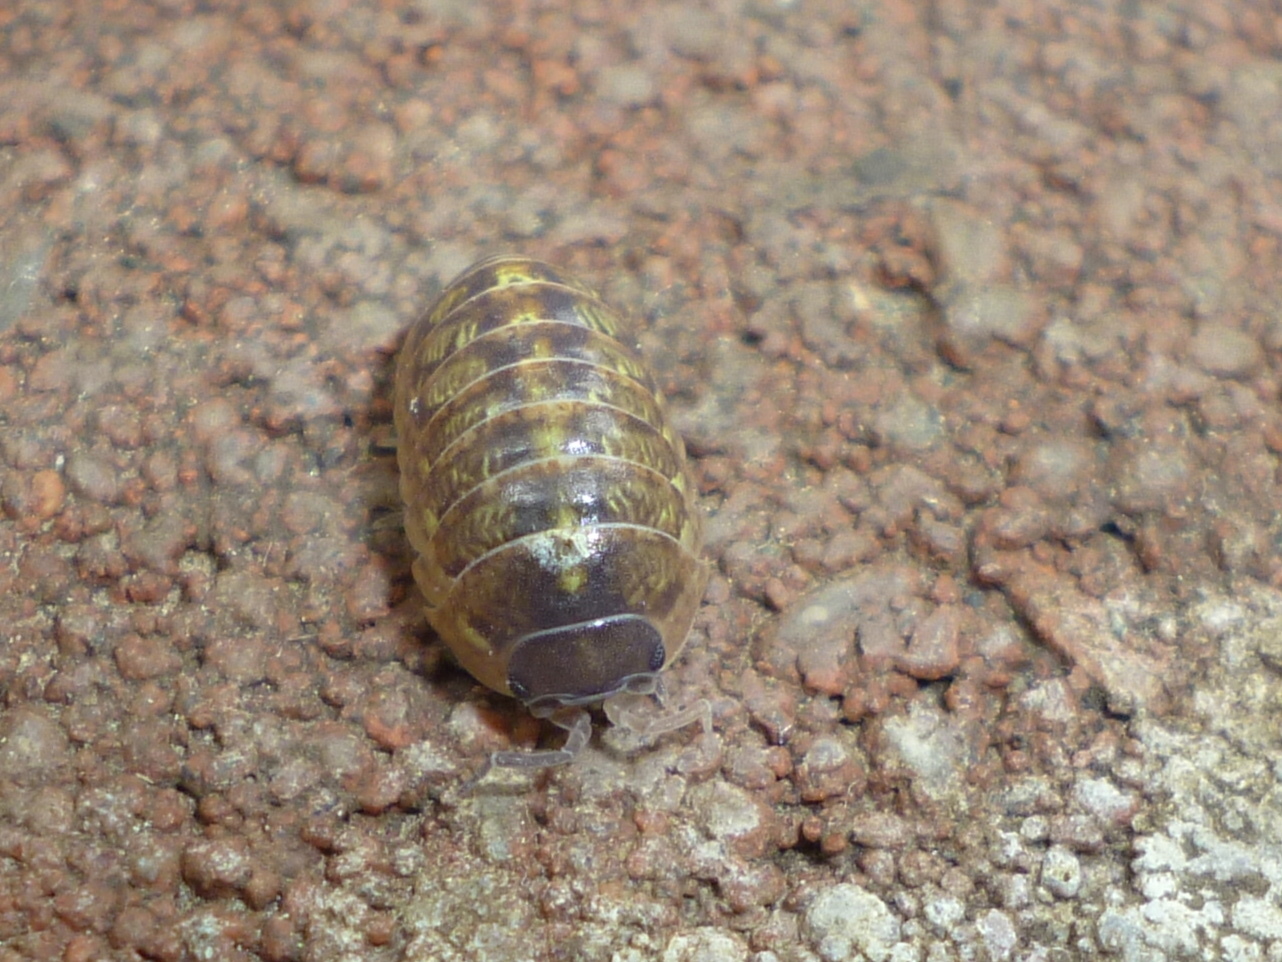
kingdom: Animalia
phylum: Arthropoda
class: Malacostraca
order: Isopoda
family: Armadillidiidae
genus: Armadillidium
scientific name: Armadillidium vulgare
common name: Common pill woodlouse
